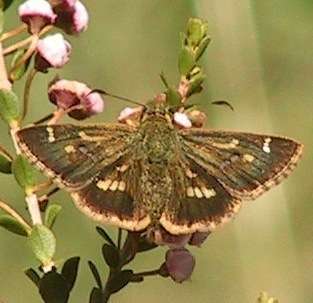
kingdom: Animalia
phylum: Arthropoda
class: Insecta
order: Lepidoptera
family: Hesperiidae
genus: Dispar
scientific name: Dispar compacta
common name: Barred skipper
